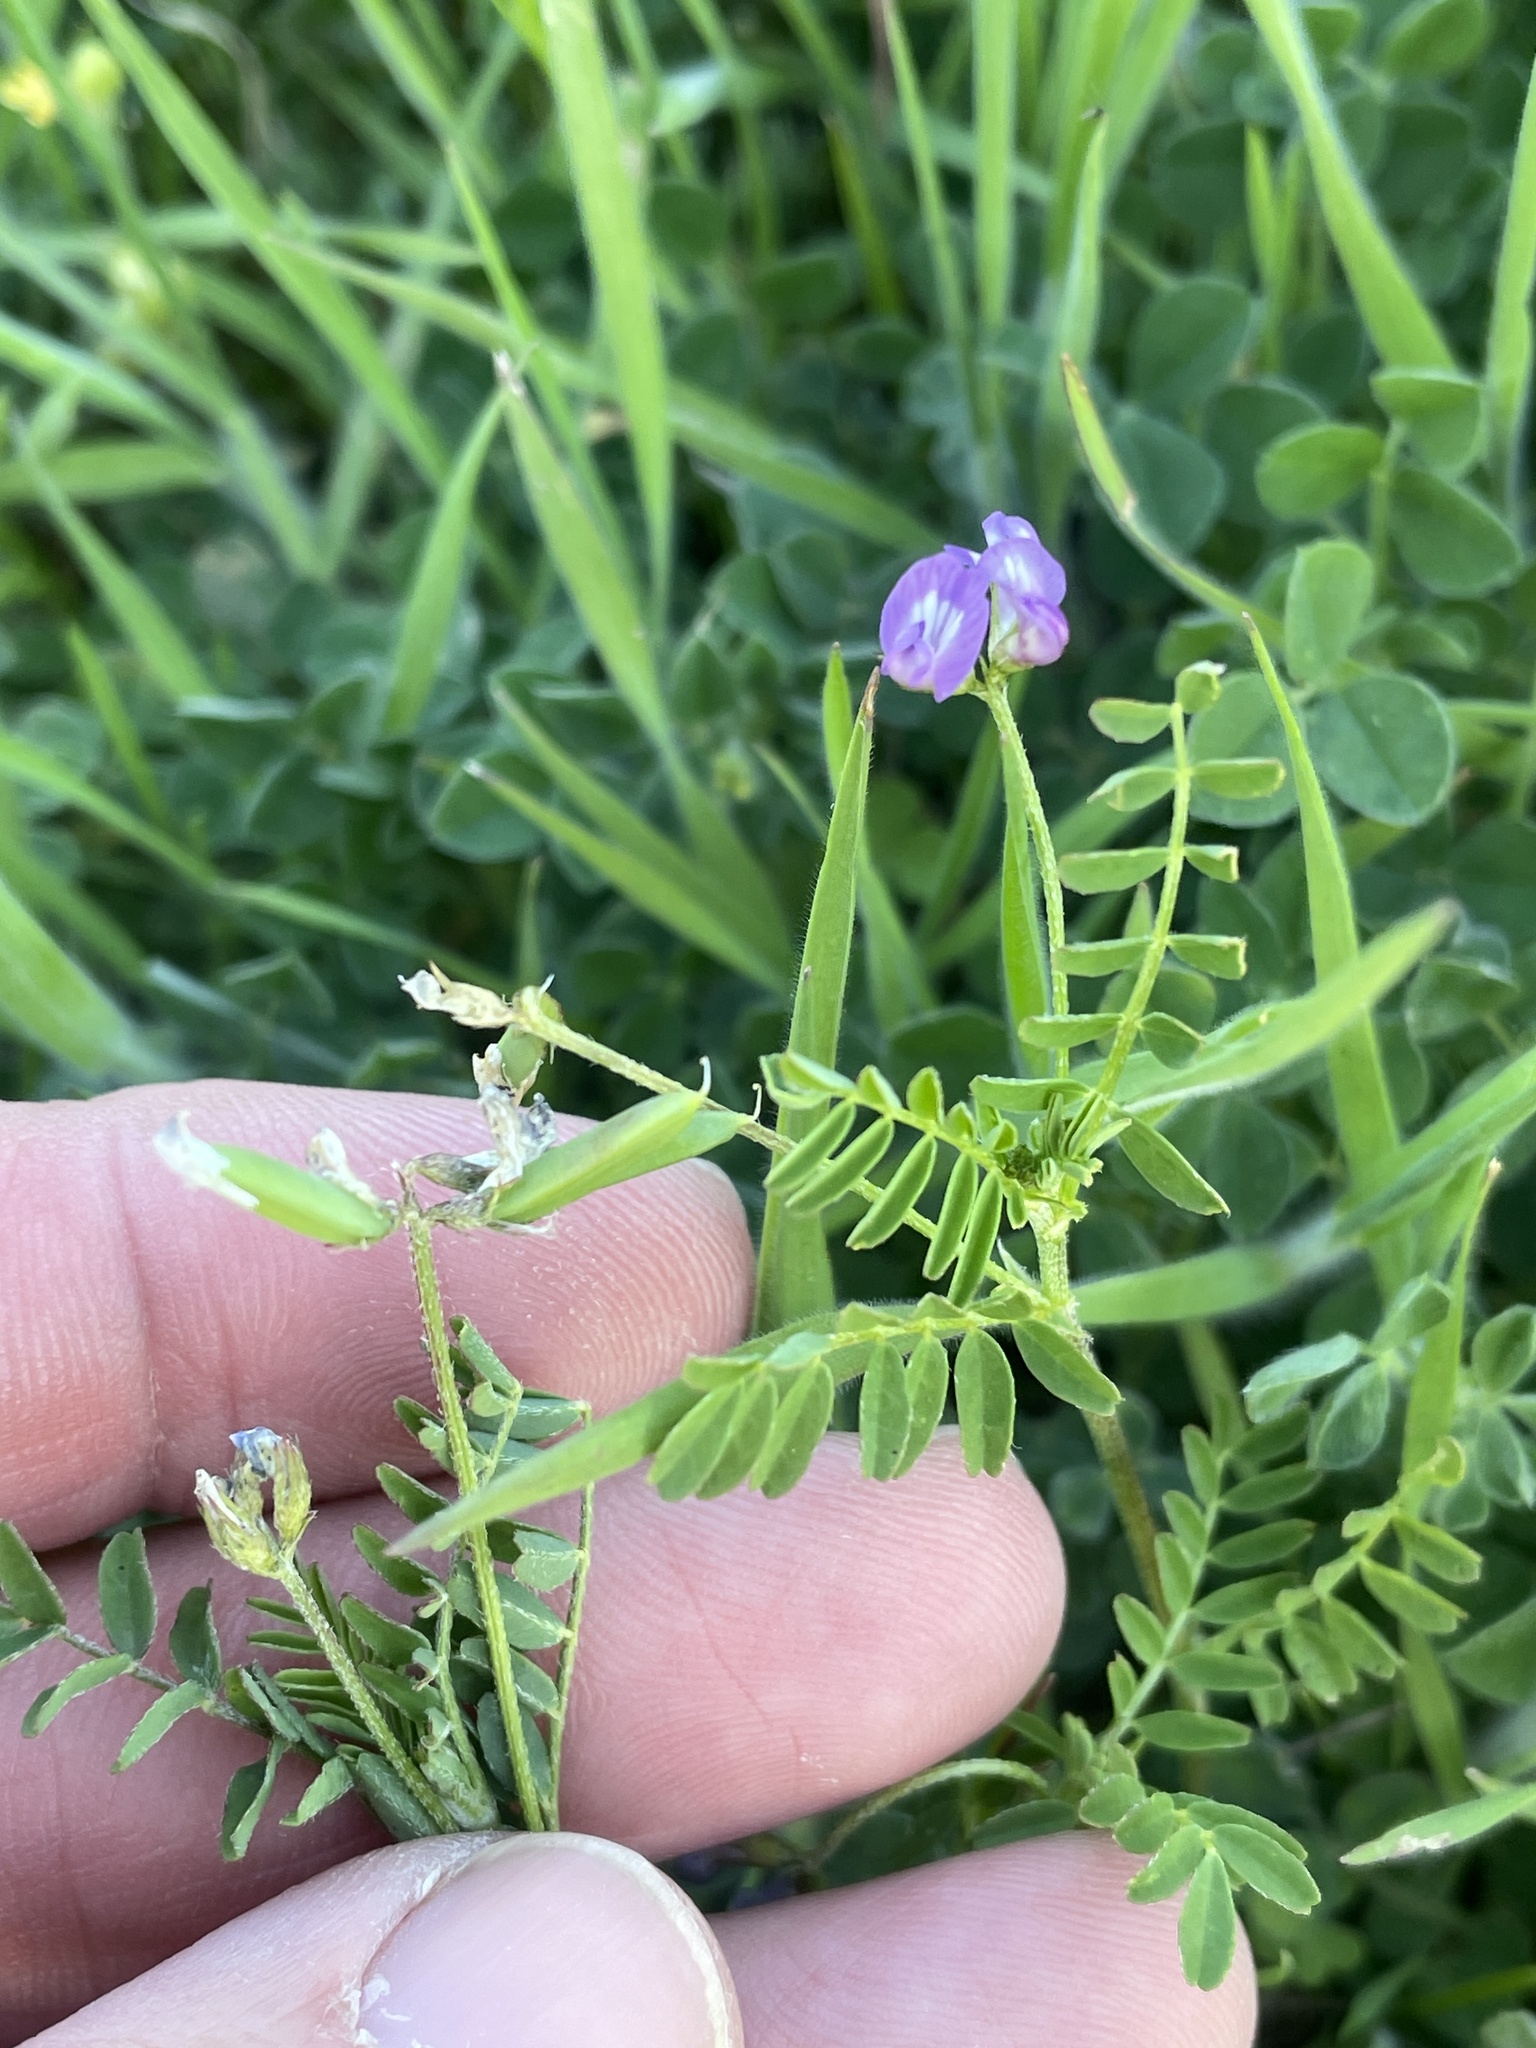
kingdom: Plantae
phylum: Tracheophyta
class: Magnoliopsida
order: Fabales
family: Fabaceae
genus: Astragalus
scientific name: Astragalus nuttallianus
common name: Smallflowered milkvetch
